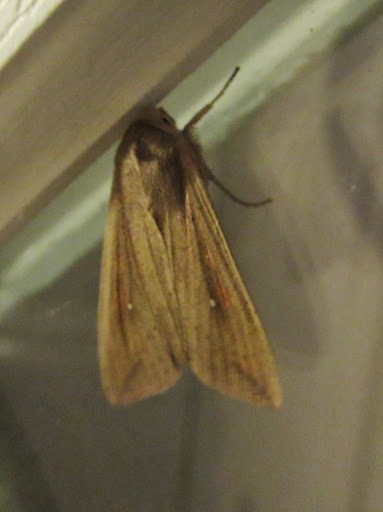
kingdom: Animalia
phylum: Arthropoda
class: Insecta
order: Lepidoptera
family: Noctuidae
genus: Mythimna
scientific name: Mythimna unipuncta
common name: White-speck
